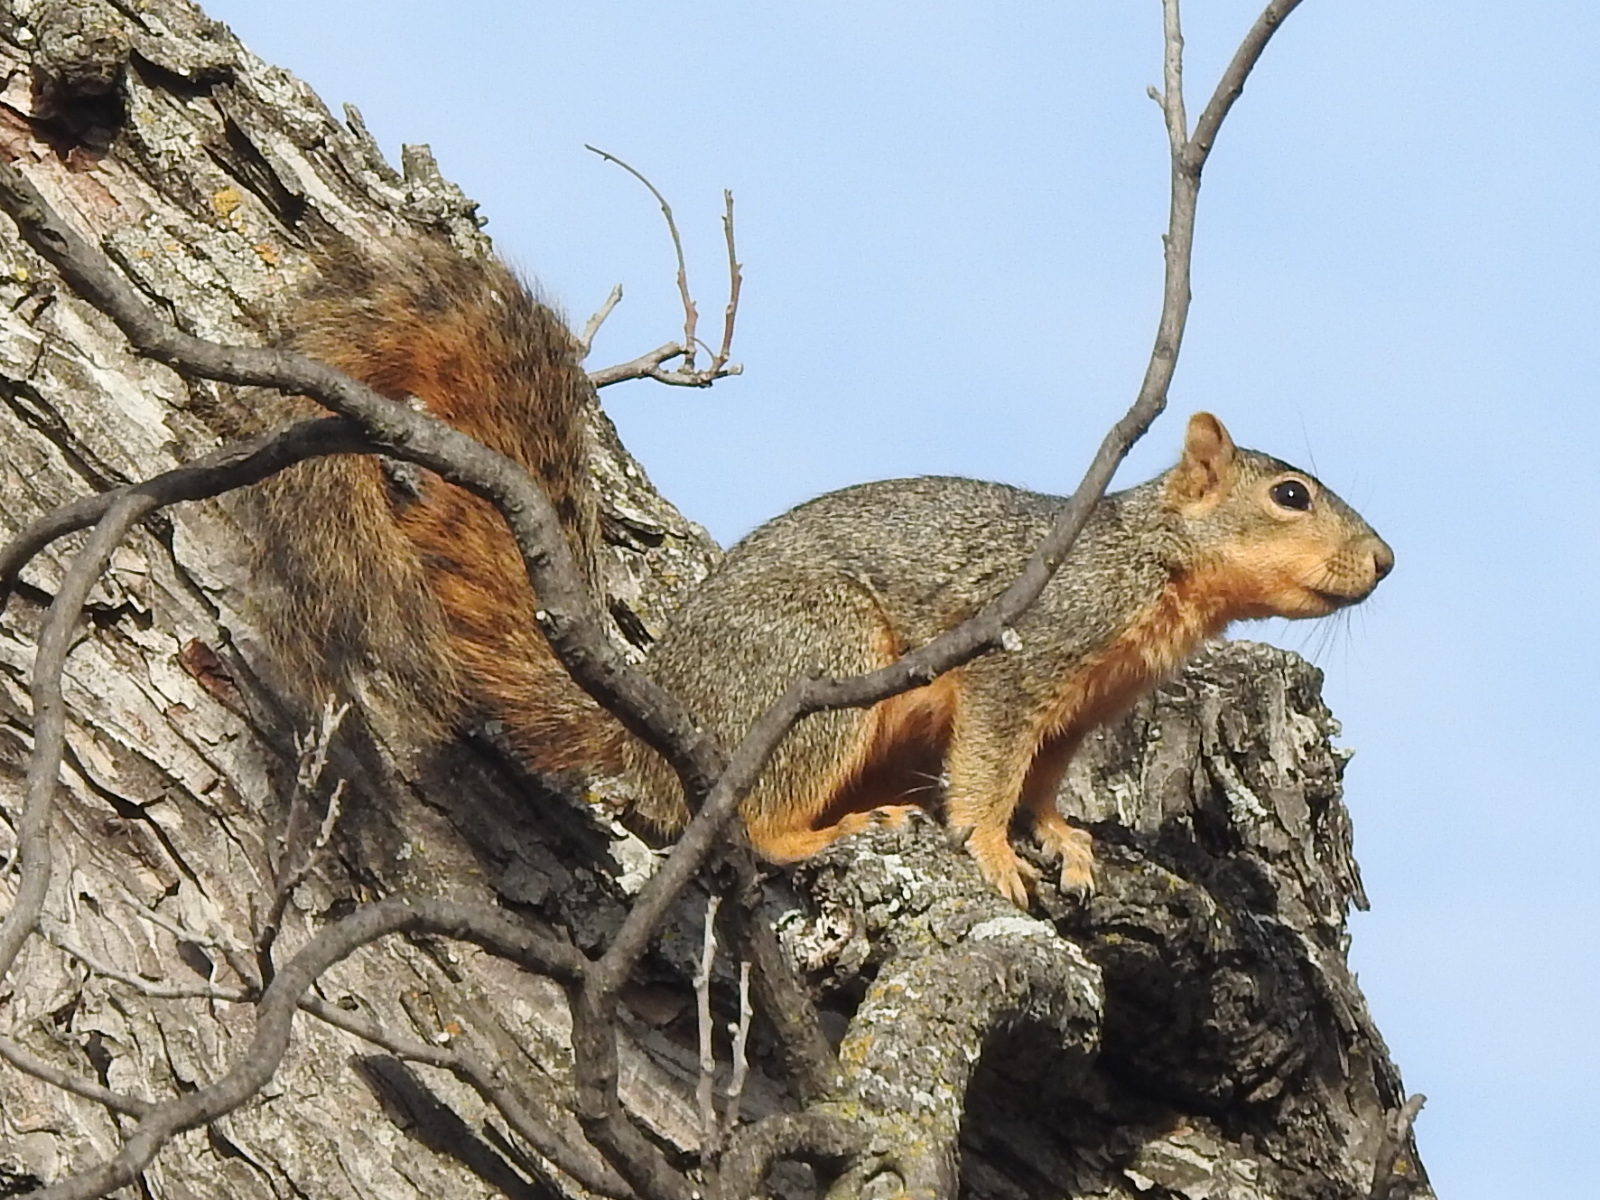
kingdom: Animalia
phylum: Chordata
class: Mammalia
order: Rodentia
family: Sciuridae
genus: Sciurus
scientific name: Sciurus niger
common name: Fox squirrel
